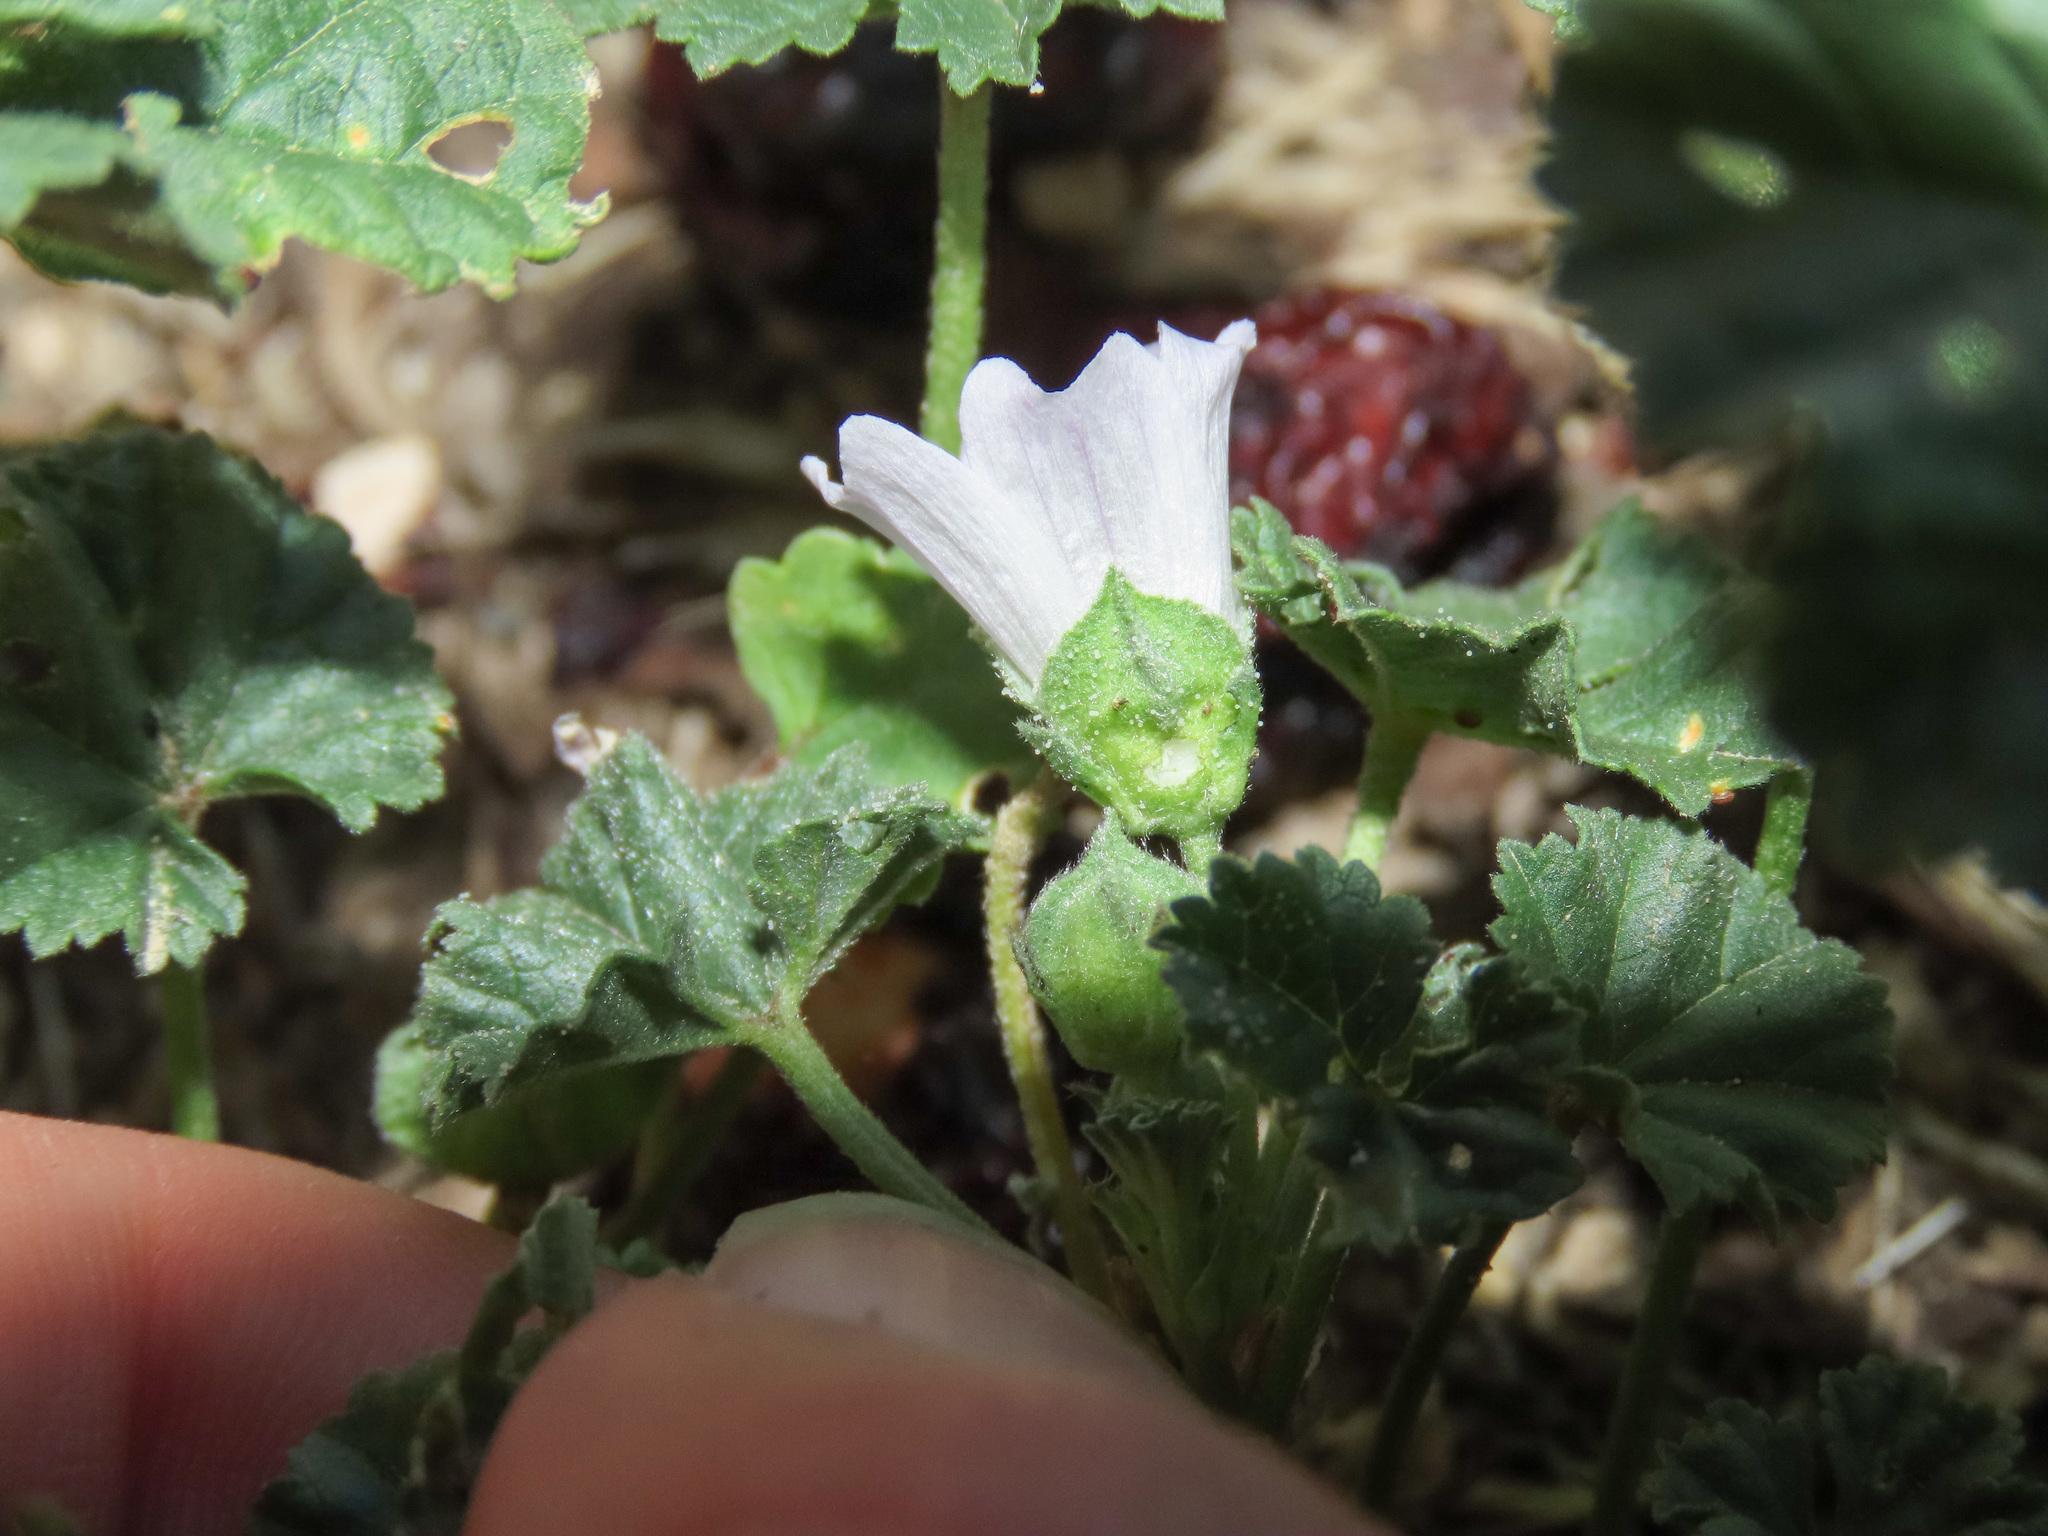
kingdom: Plantae
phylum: Tracheophyta
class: Magnoliopsida
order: Malvales
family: Malvaceae
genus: Malva
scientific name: Malva neglecta
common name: Common mallow
